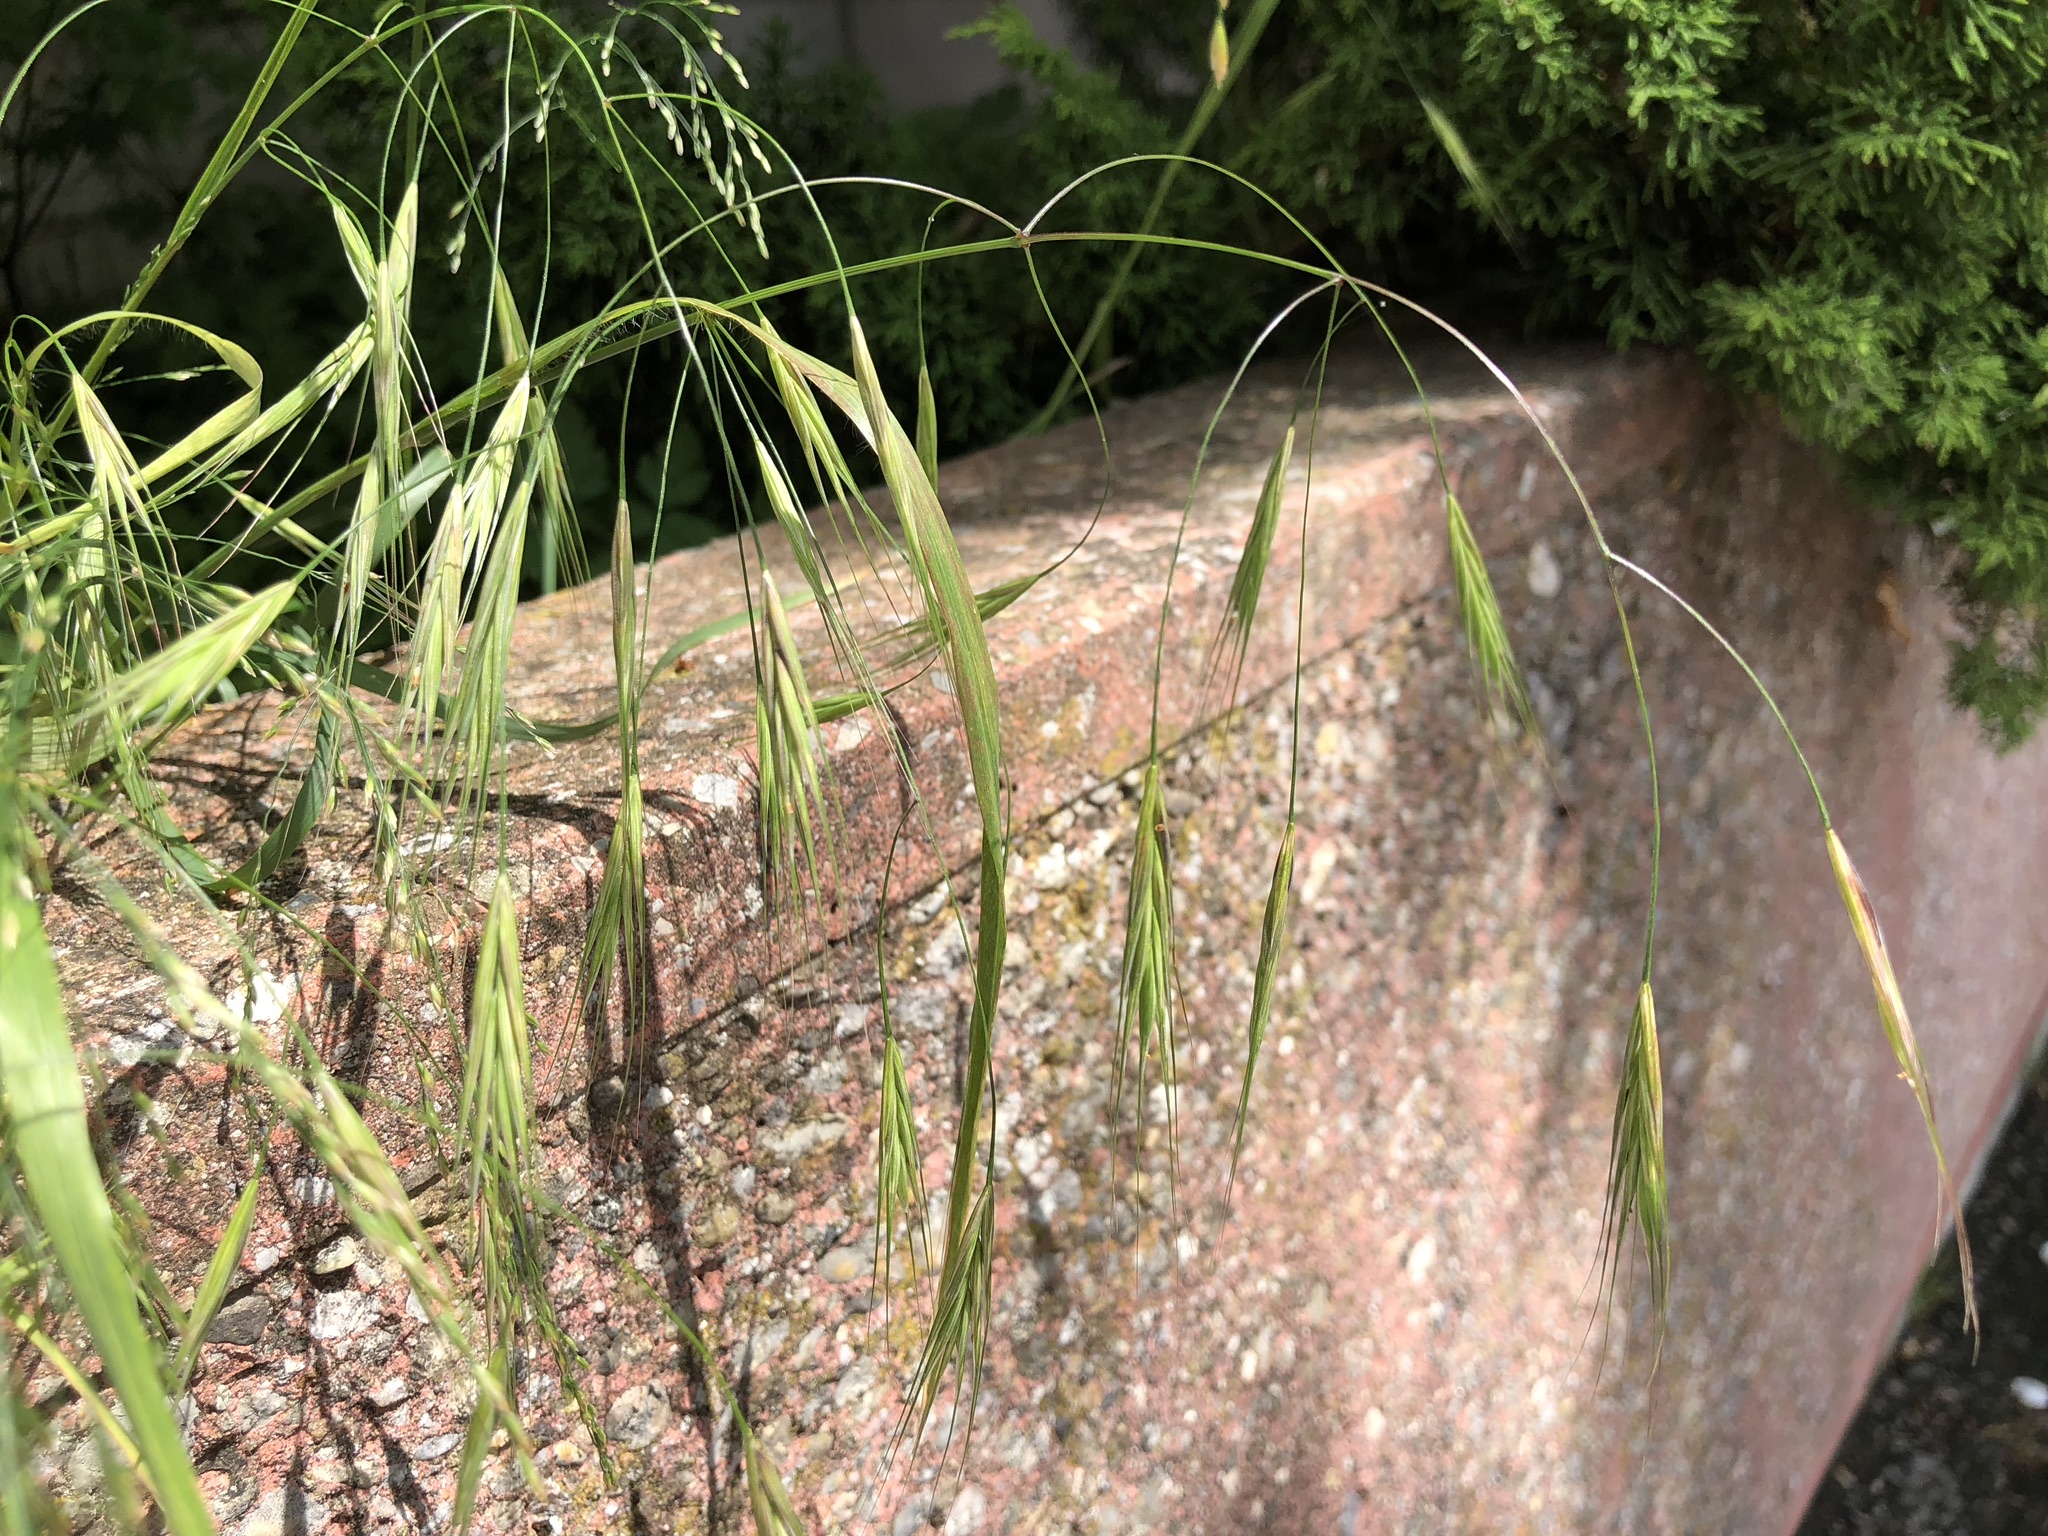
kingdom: Plantae
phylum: Tracheophyta
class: Liliopsida
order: Poales
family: Poaceae
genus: Bromus
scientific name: Bromus sterilis
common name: Poverty brome
